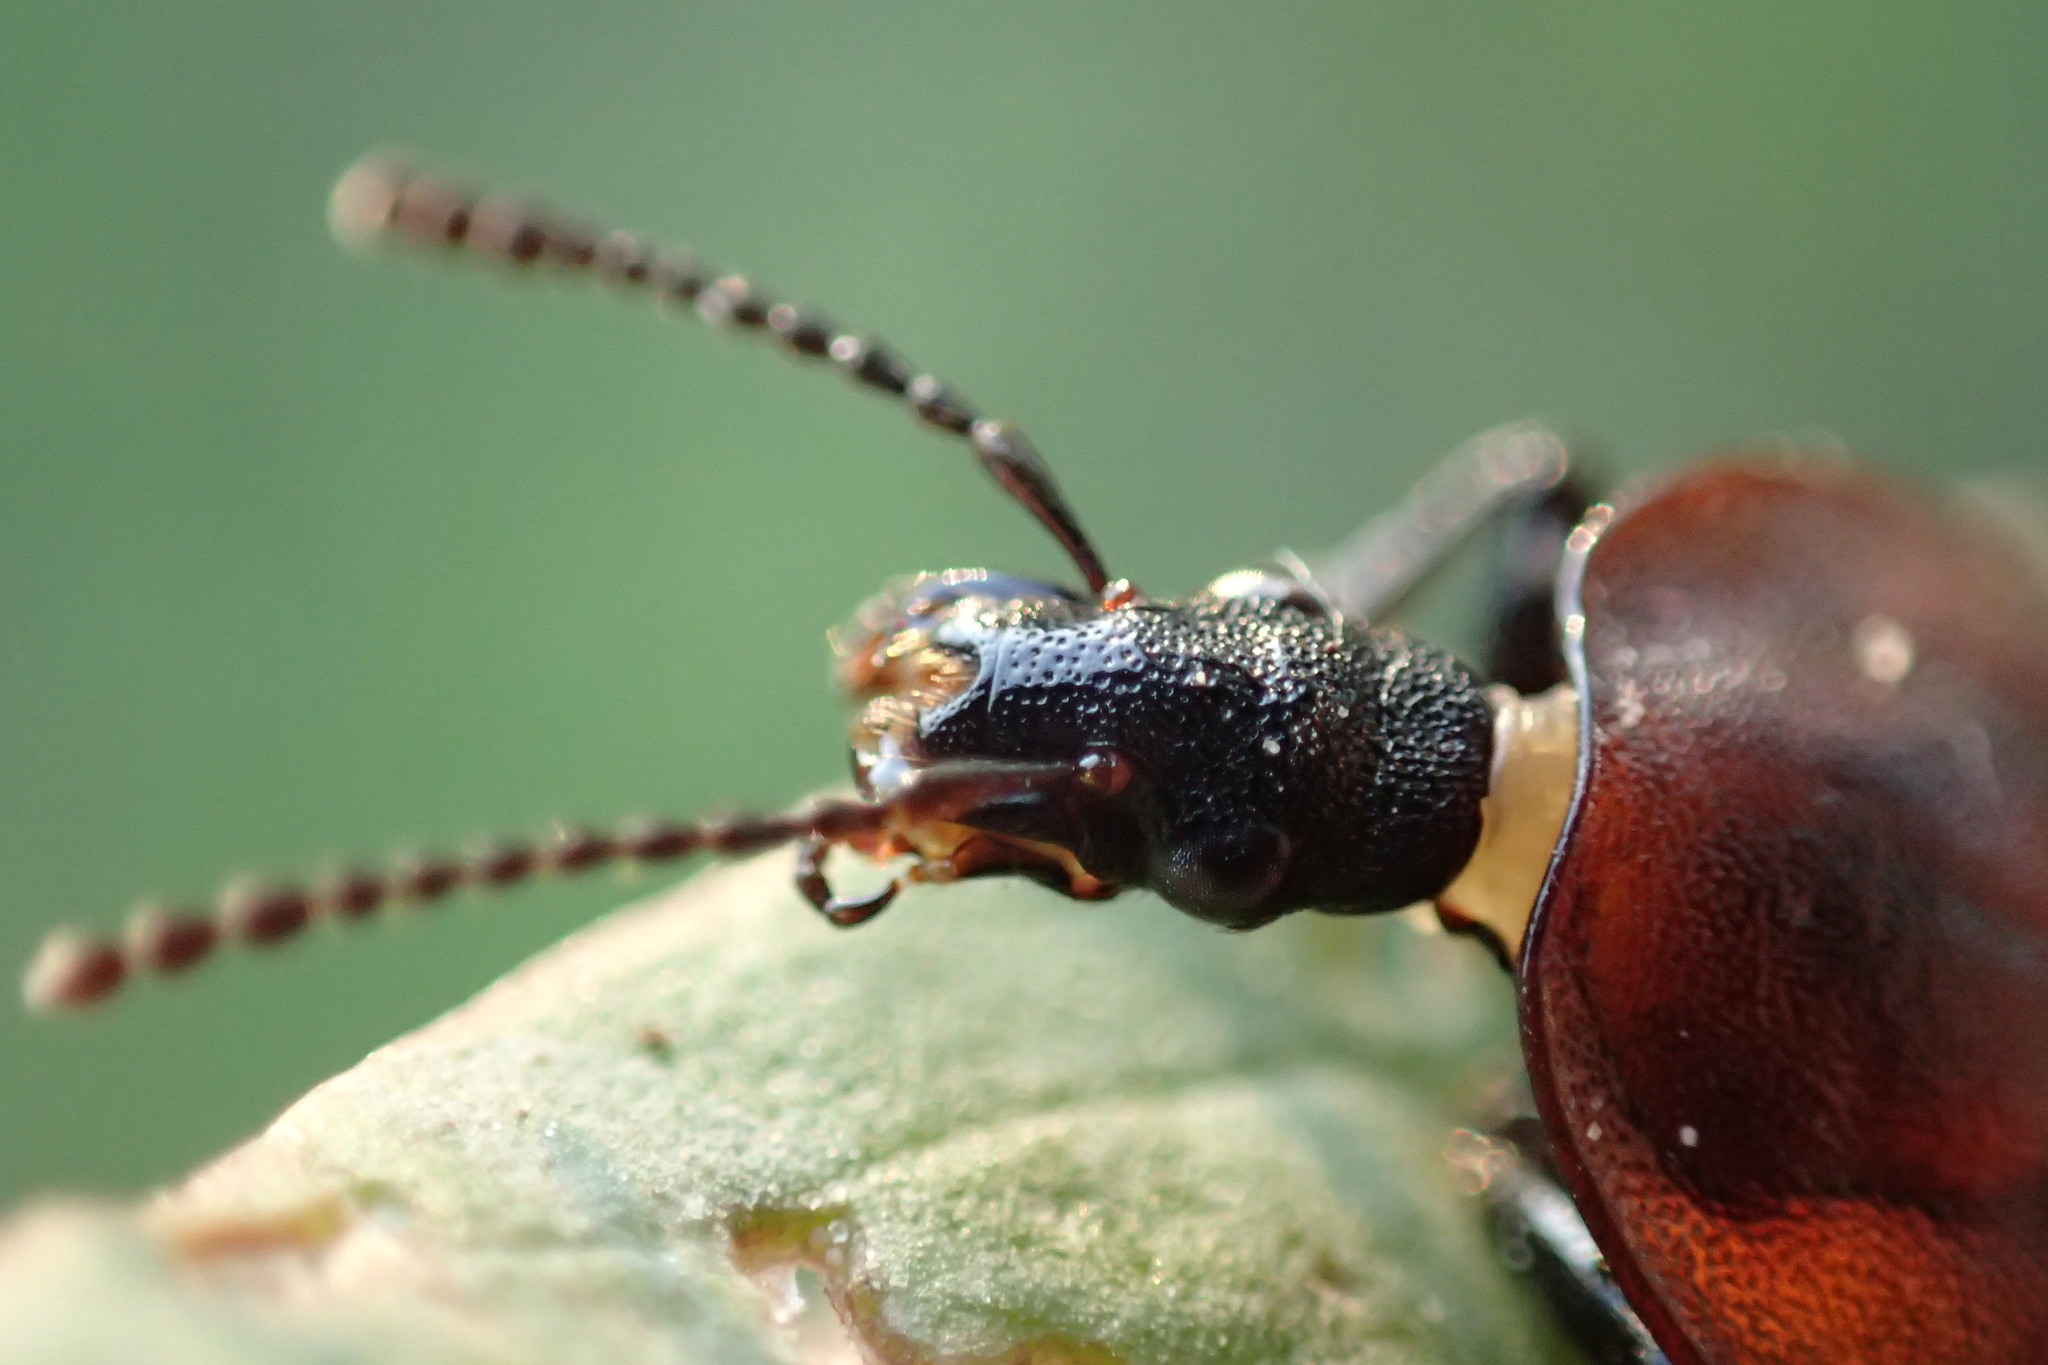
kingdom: Animalia
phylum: Arthropoda
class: Insecta
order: Coleoptera
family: Staphylinidae
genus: Silpha
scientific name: Silpha atrata
